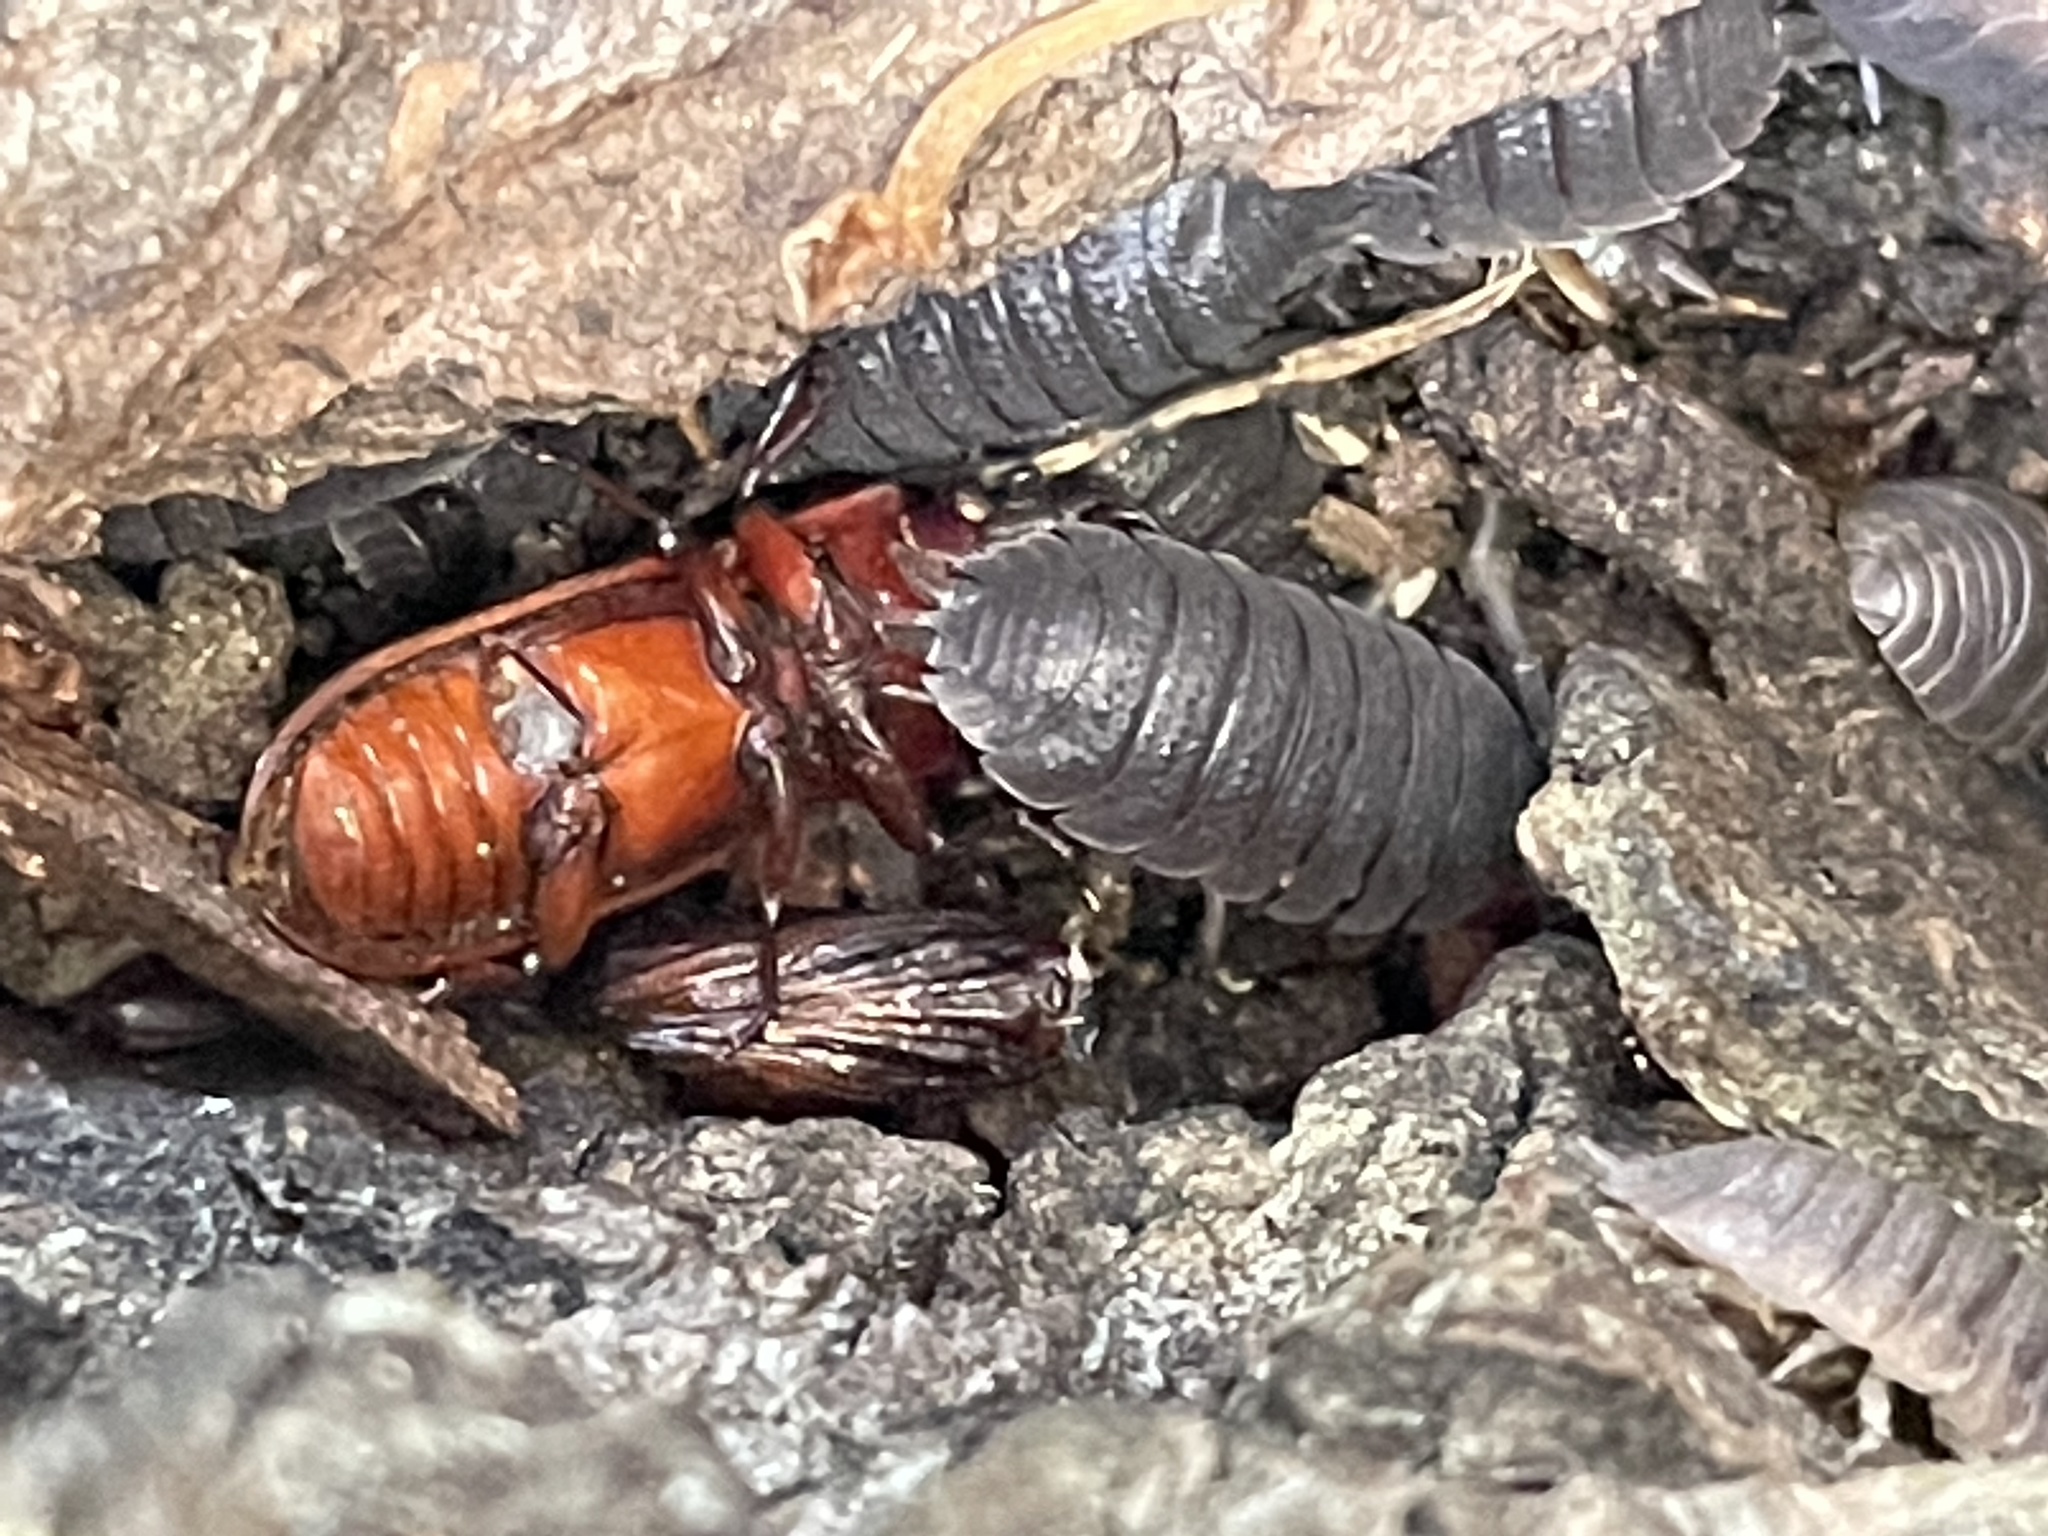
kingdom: Animalia
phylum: Arthropoda
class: Insecta
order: Dermaptera
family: Forficulidae
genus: Forficula
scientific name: Forficula
